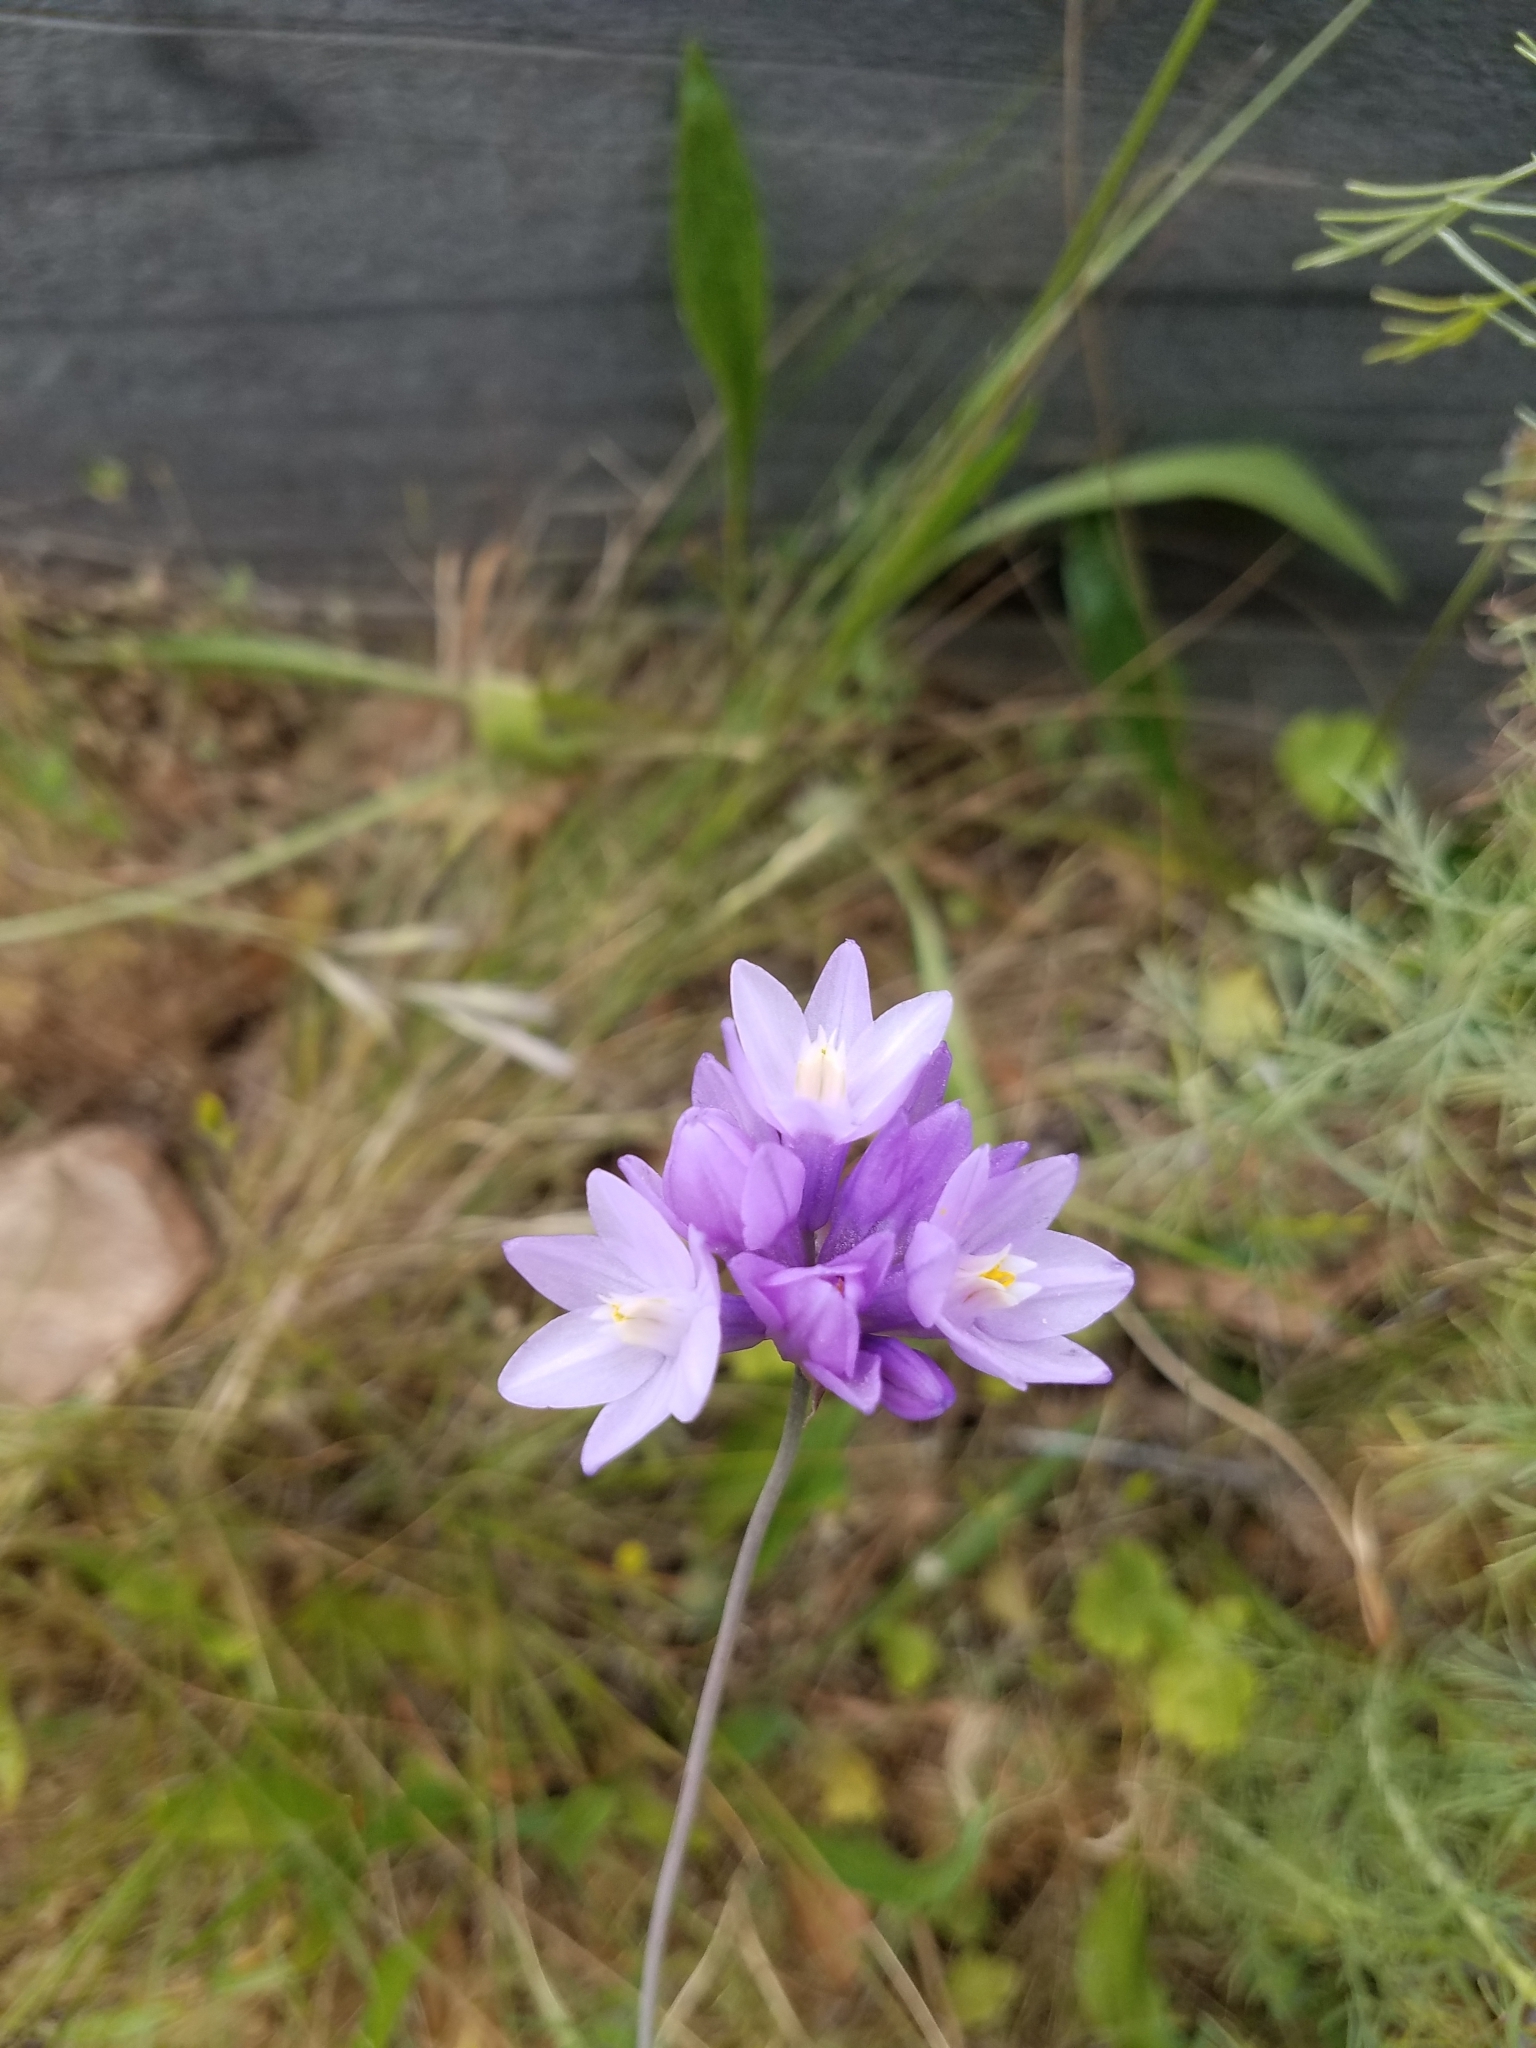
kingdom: Plantae
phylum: Tracheophyta
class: Liliopsida
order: Asparagales
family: Asparagaceae
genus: Dipterostemon
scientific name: Dipterostemon capitatus
